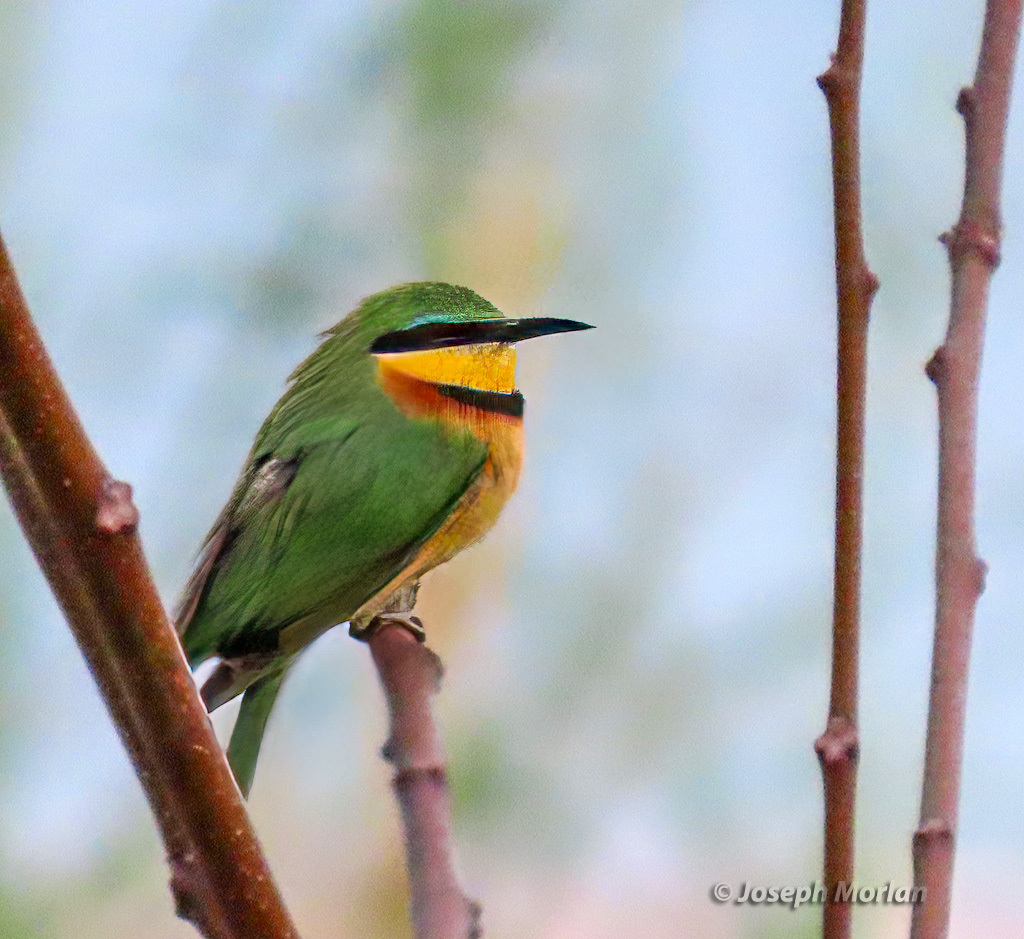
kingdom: Animalia
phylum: Chordata
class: Aves
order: Coraciiformes
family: Meropidae
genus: Merops
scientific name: Merops pusillus
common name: Little bee-eater
